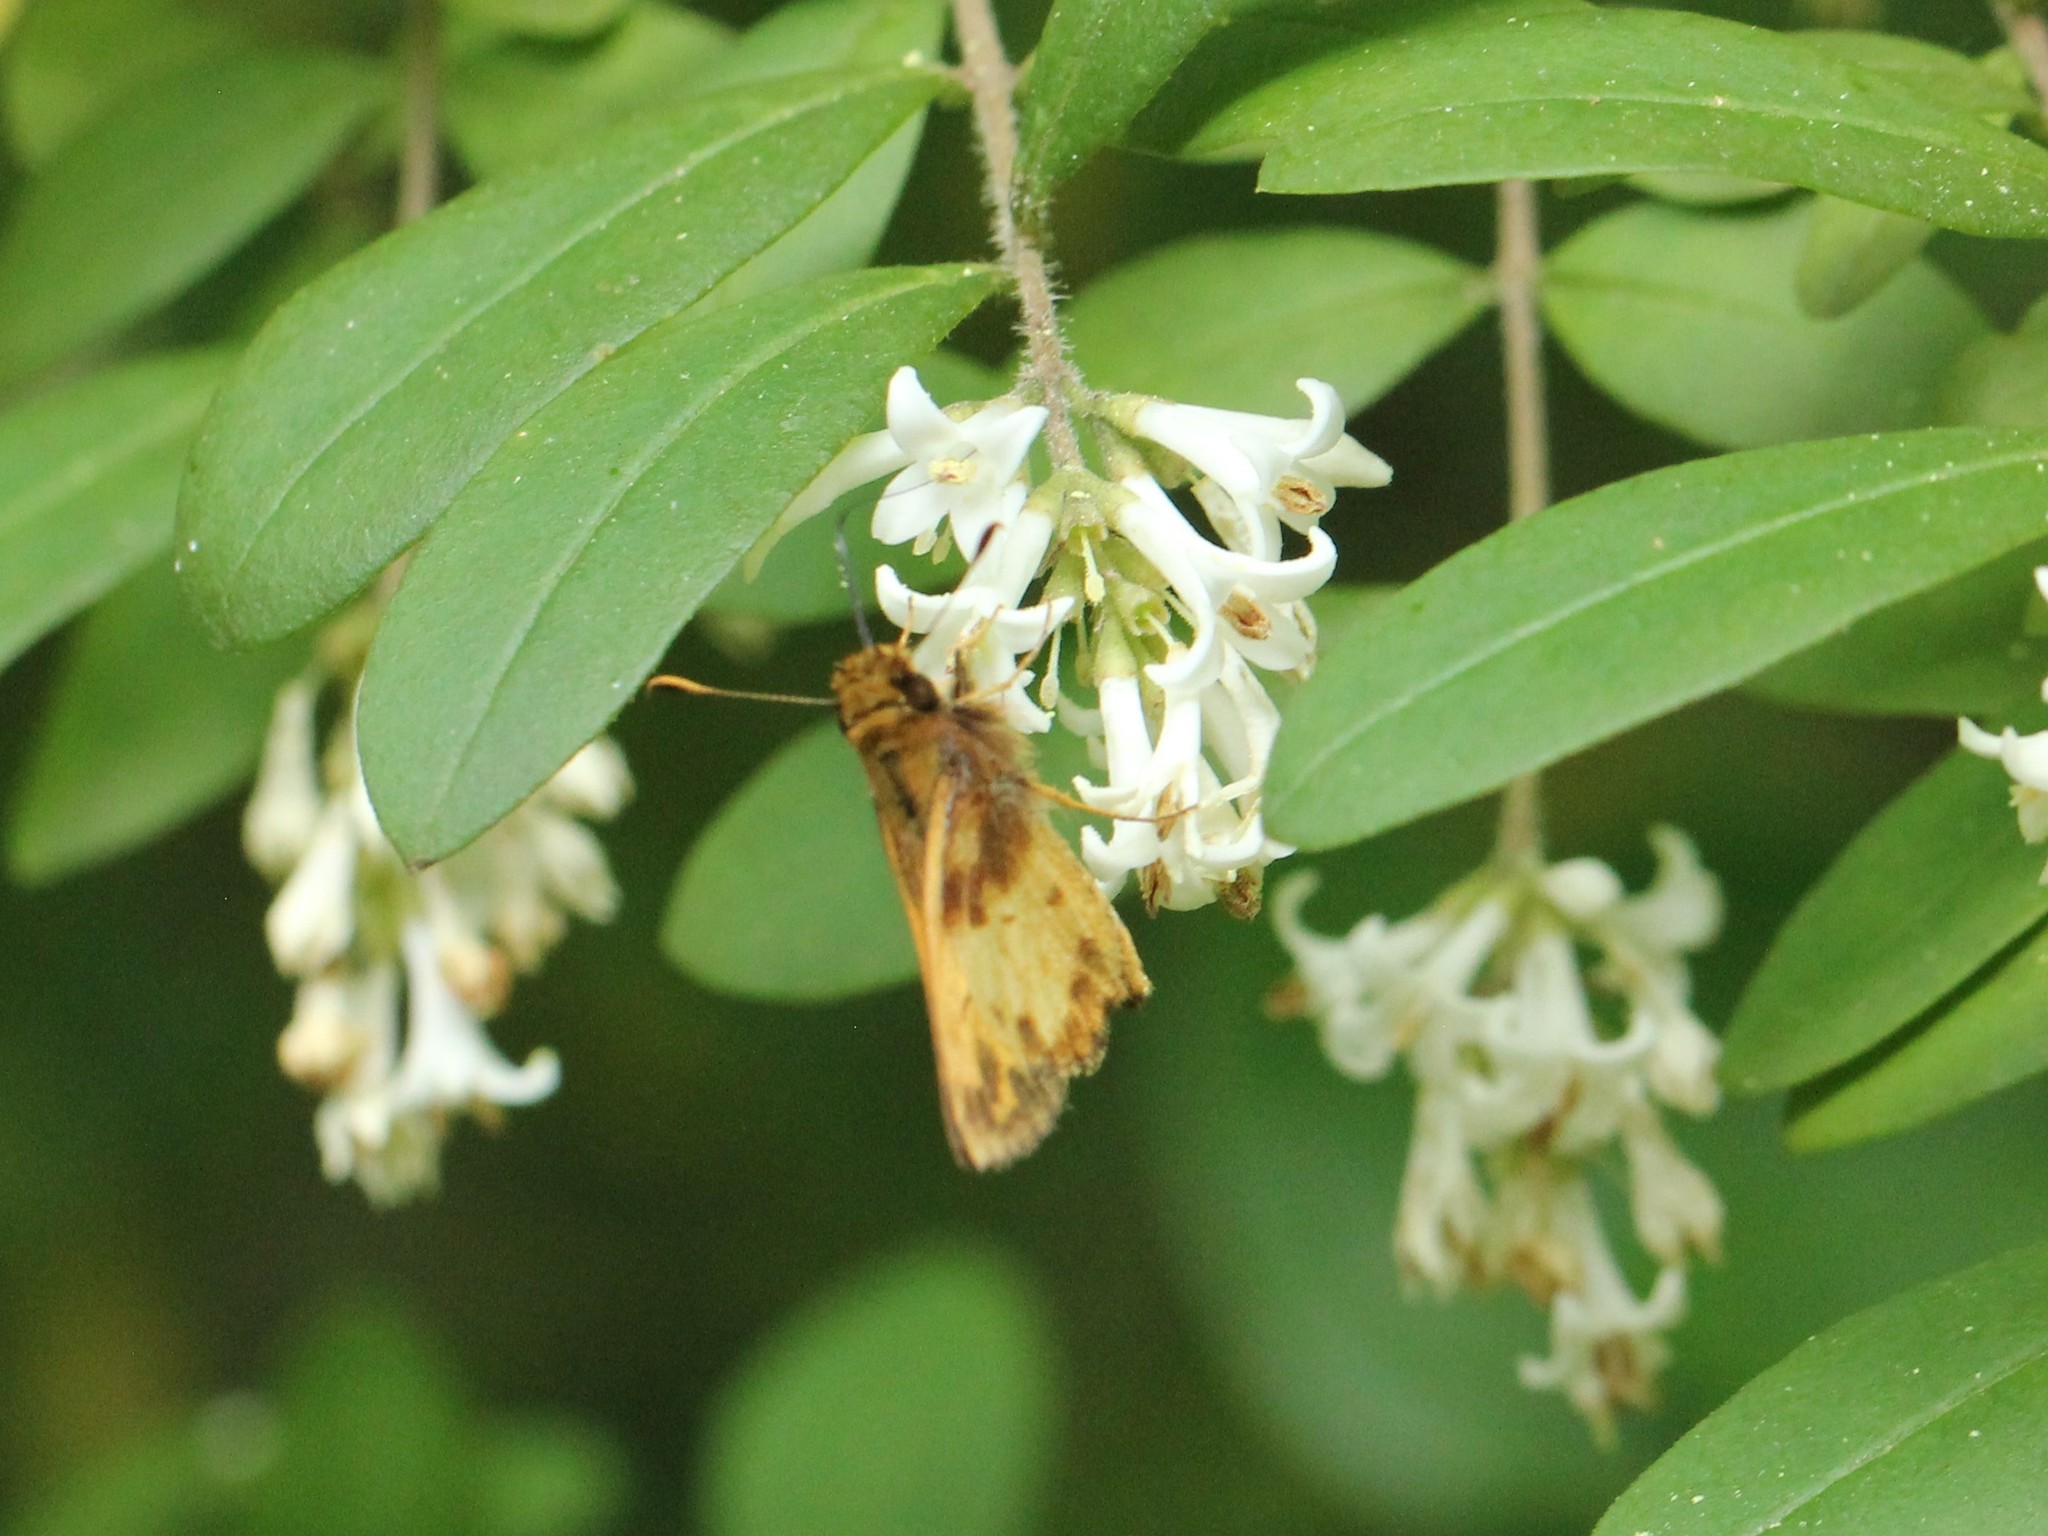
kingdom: Animalia
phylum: Arthropoda
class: Insecta
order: Lepidoptera
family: Hesperiidae
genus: Lon
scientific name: Lon zabulon
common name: Zabulon skipper
